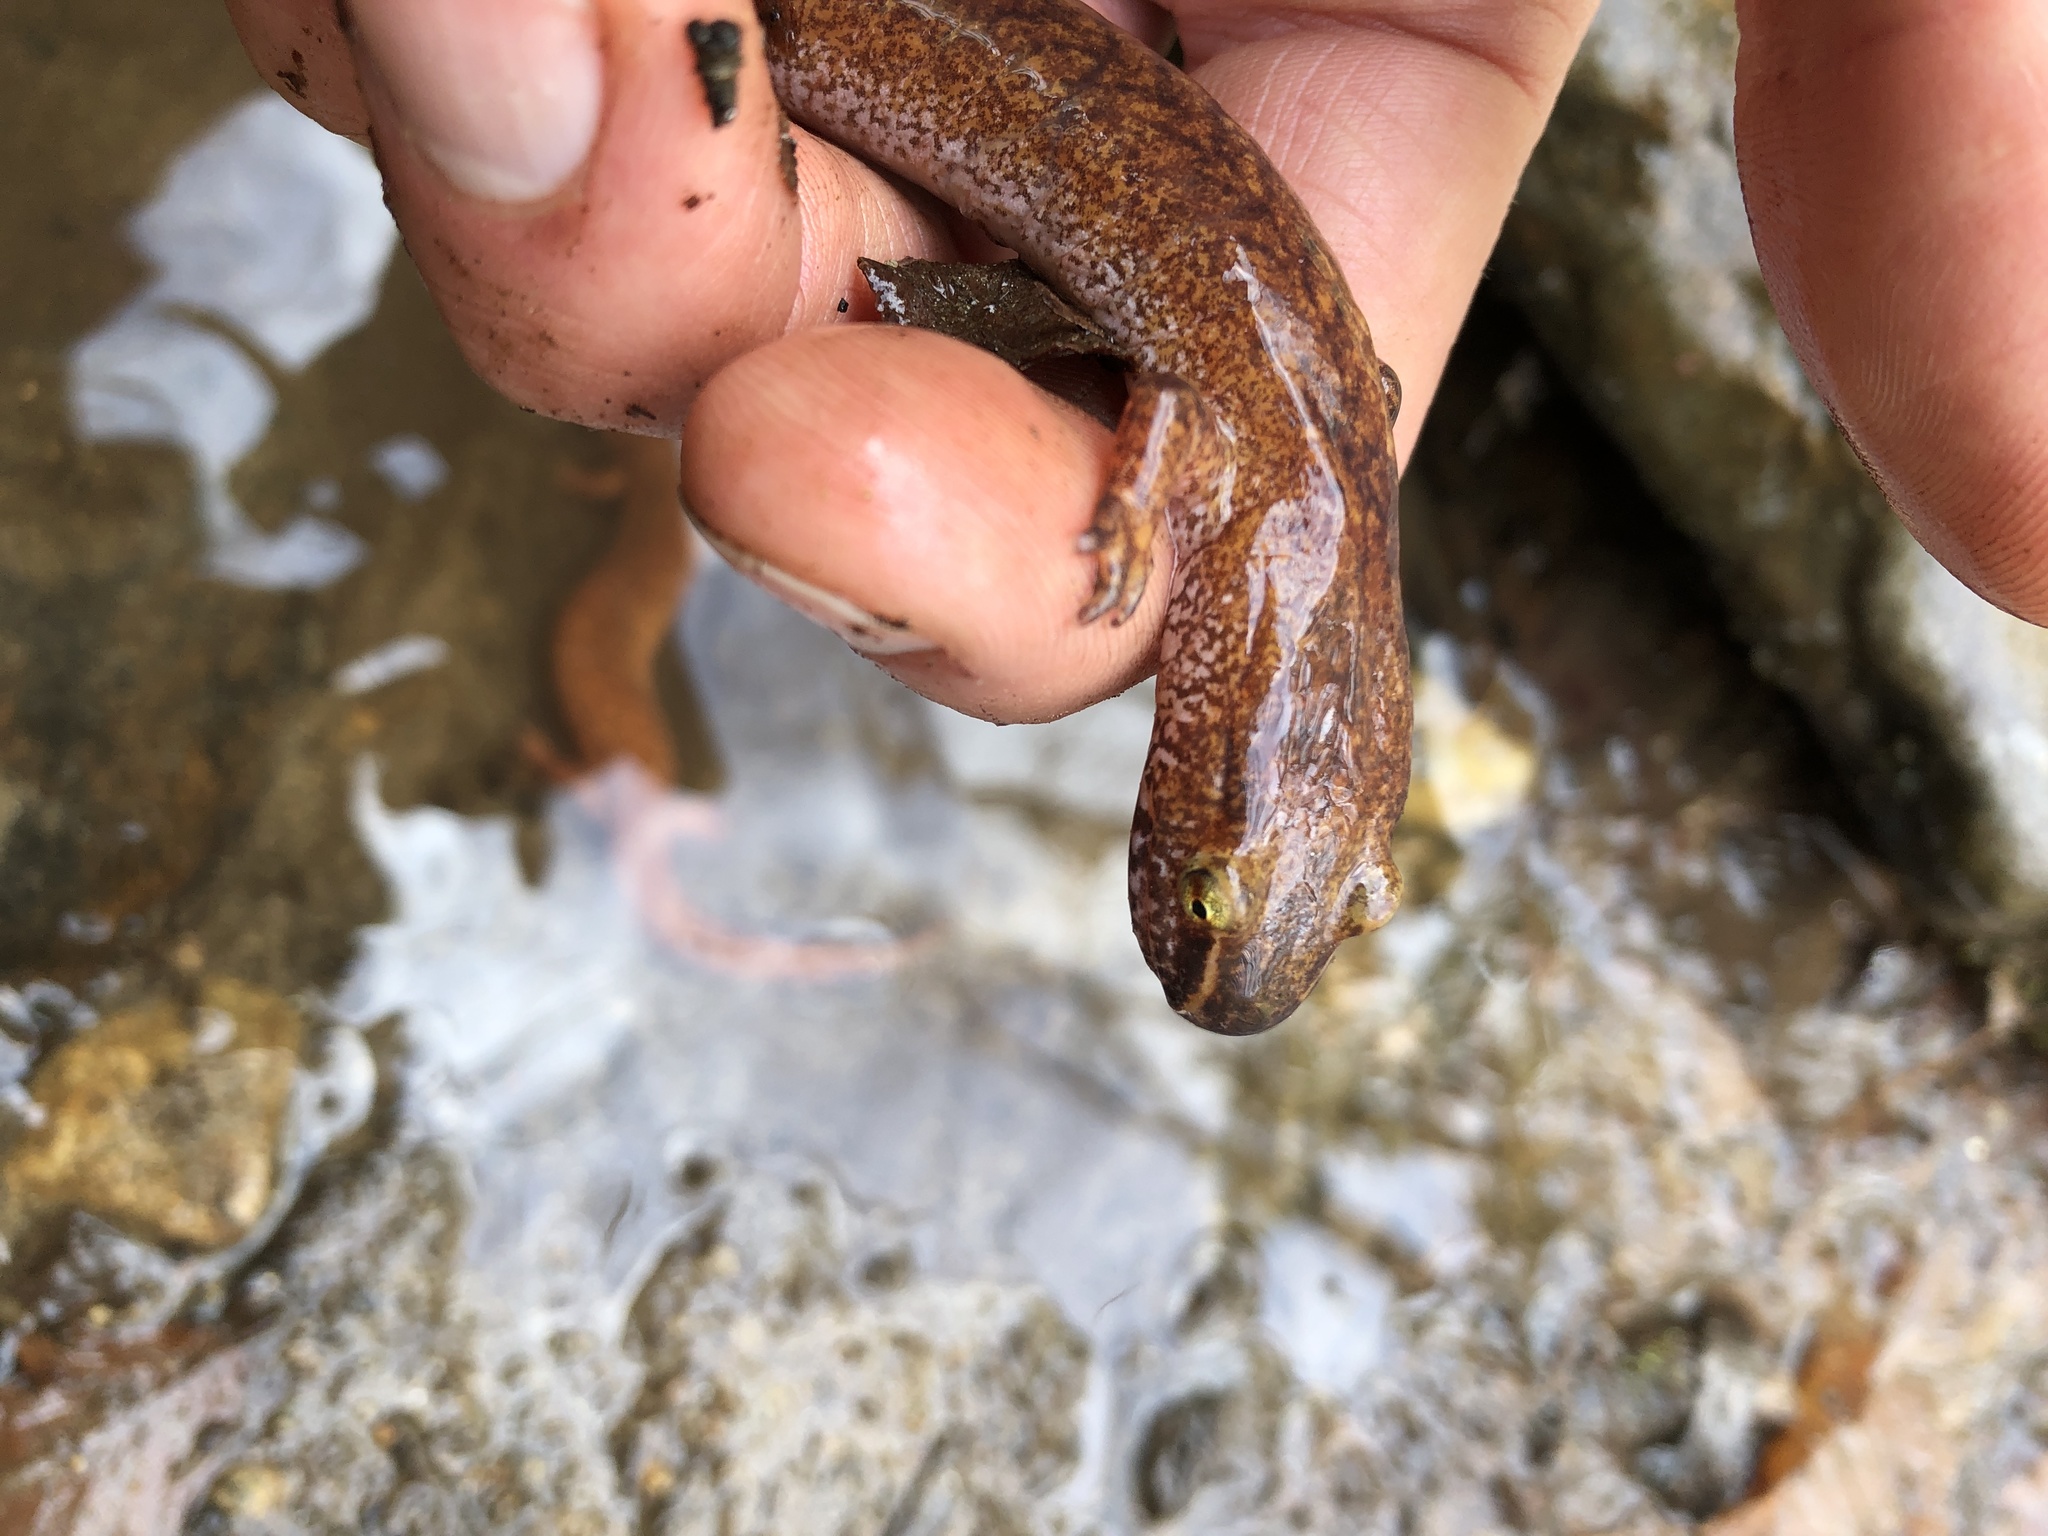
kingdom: Animalia
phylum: Chordata
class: Amphibia
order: Caudata
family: Plethodontidae
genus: Gyrinophilus
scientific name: Gyrinophilus porphyriticus
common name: Spring salamander
